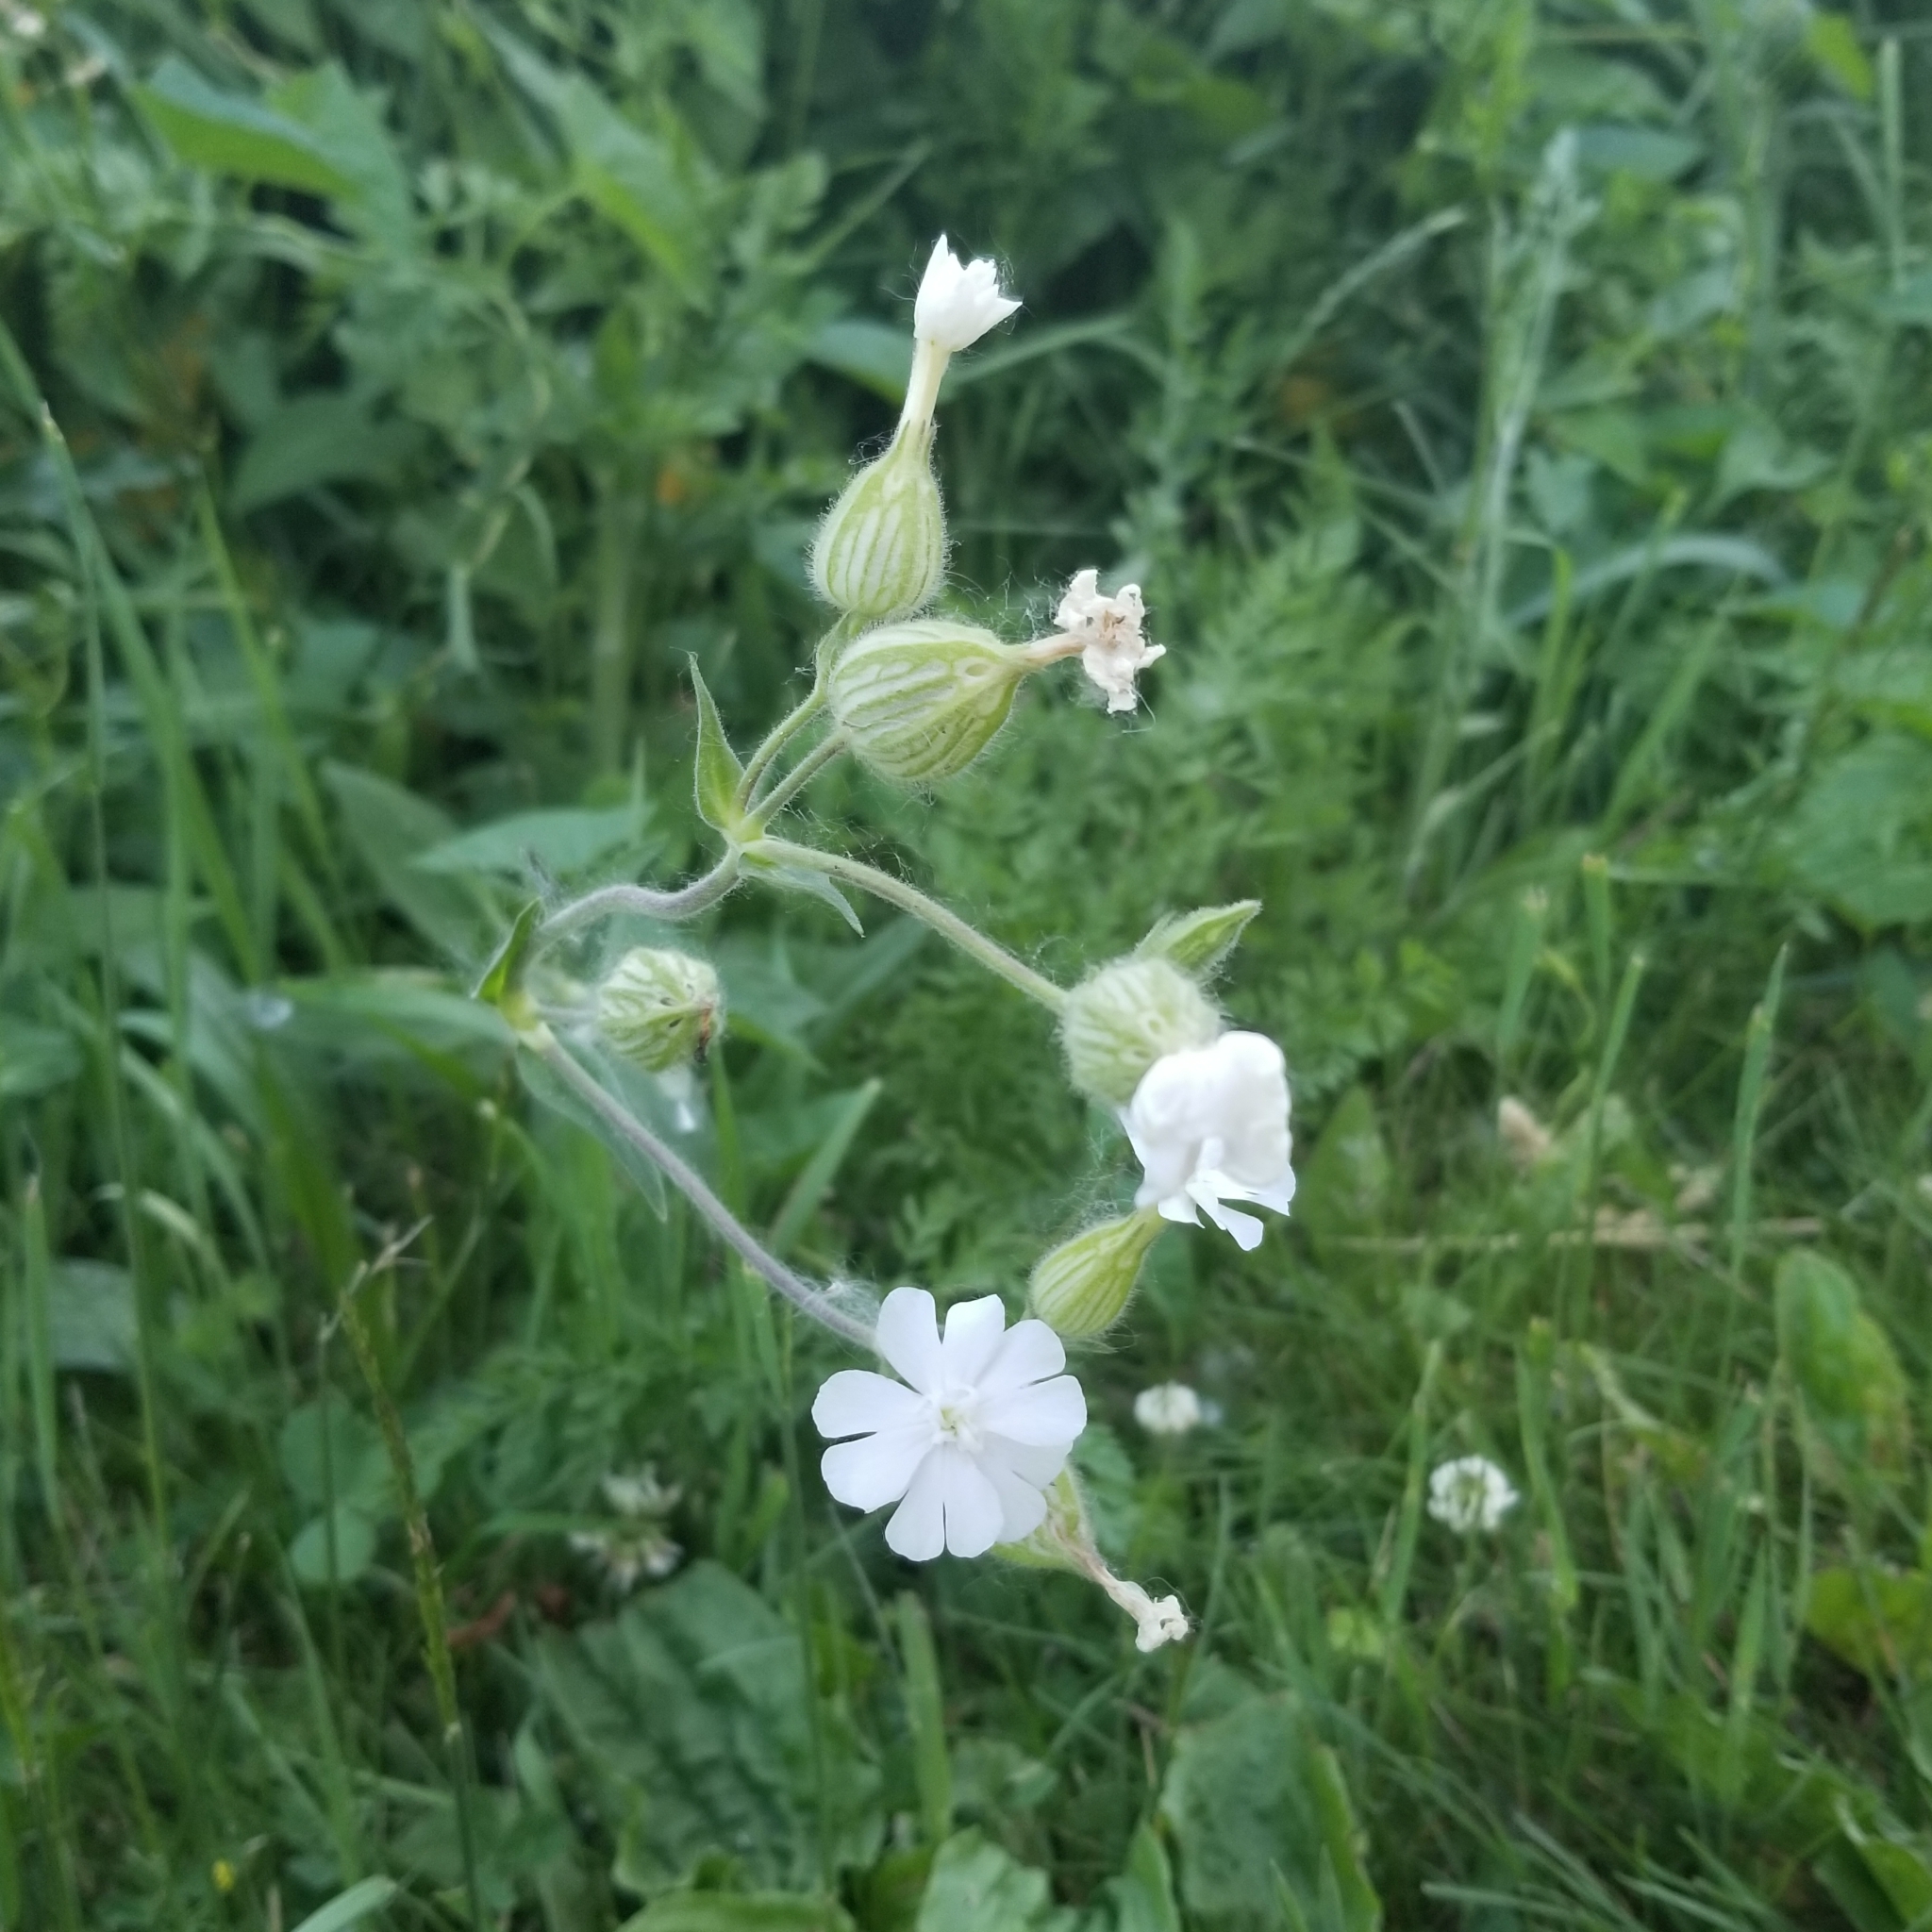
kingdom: Plantae
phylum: Tracheophyta
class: Magnoliopsida
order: Caryophyllales
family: Caryophyllaceae
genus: Silene
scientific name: Silene latifolia
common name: White campion
